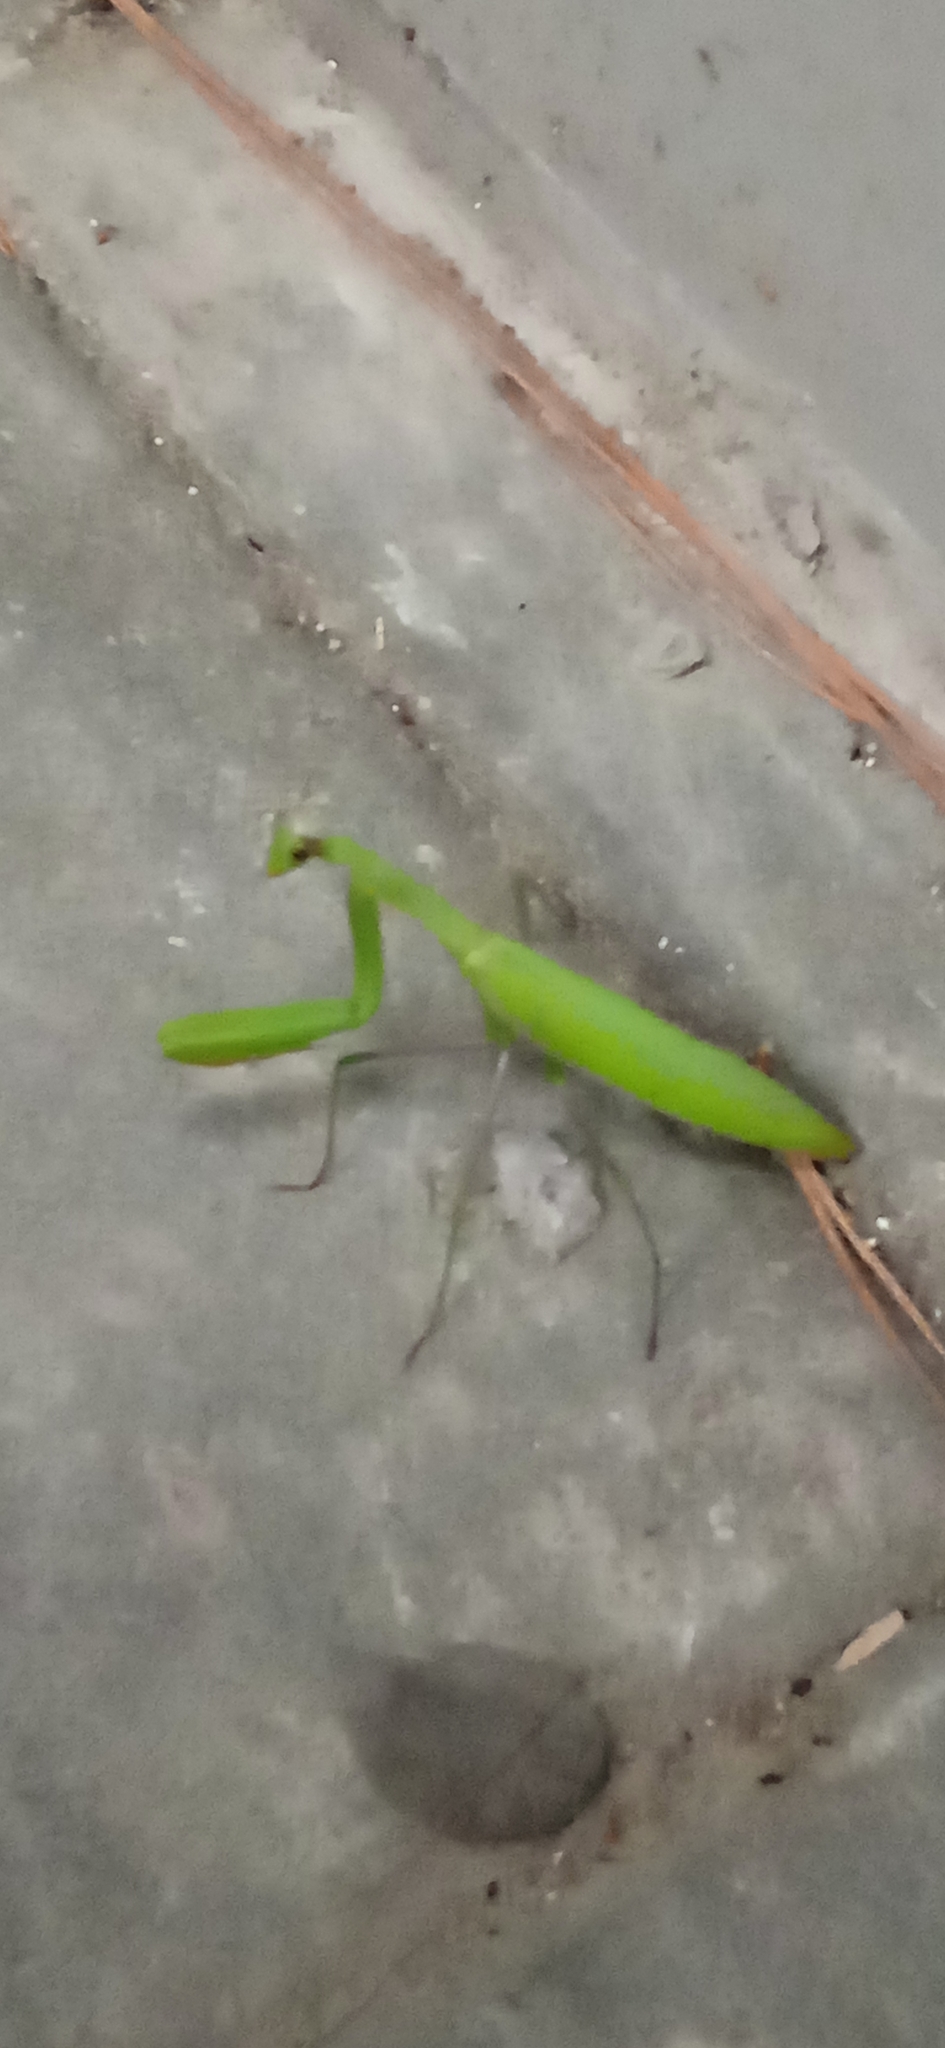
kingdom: Animalia
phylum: Arthropoda
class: Insecta
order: Mantodea
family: Mantidae
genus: Mantis
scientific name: Mantis religiosa
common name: Praying mantis
